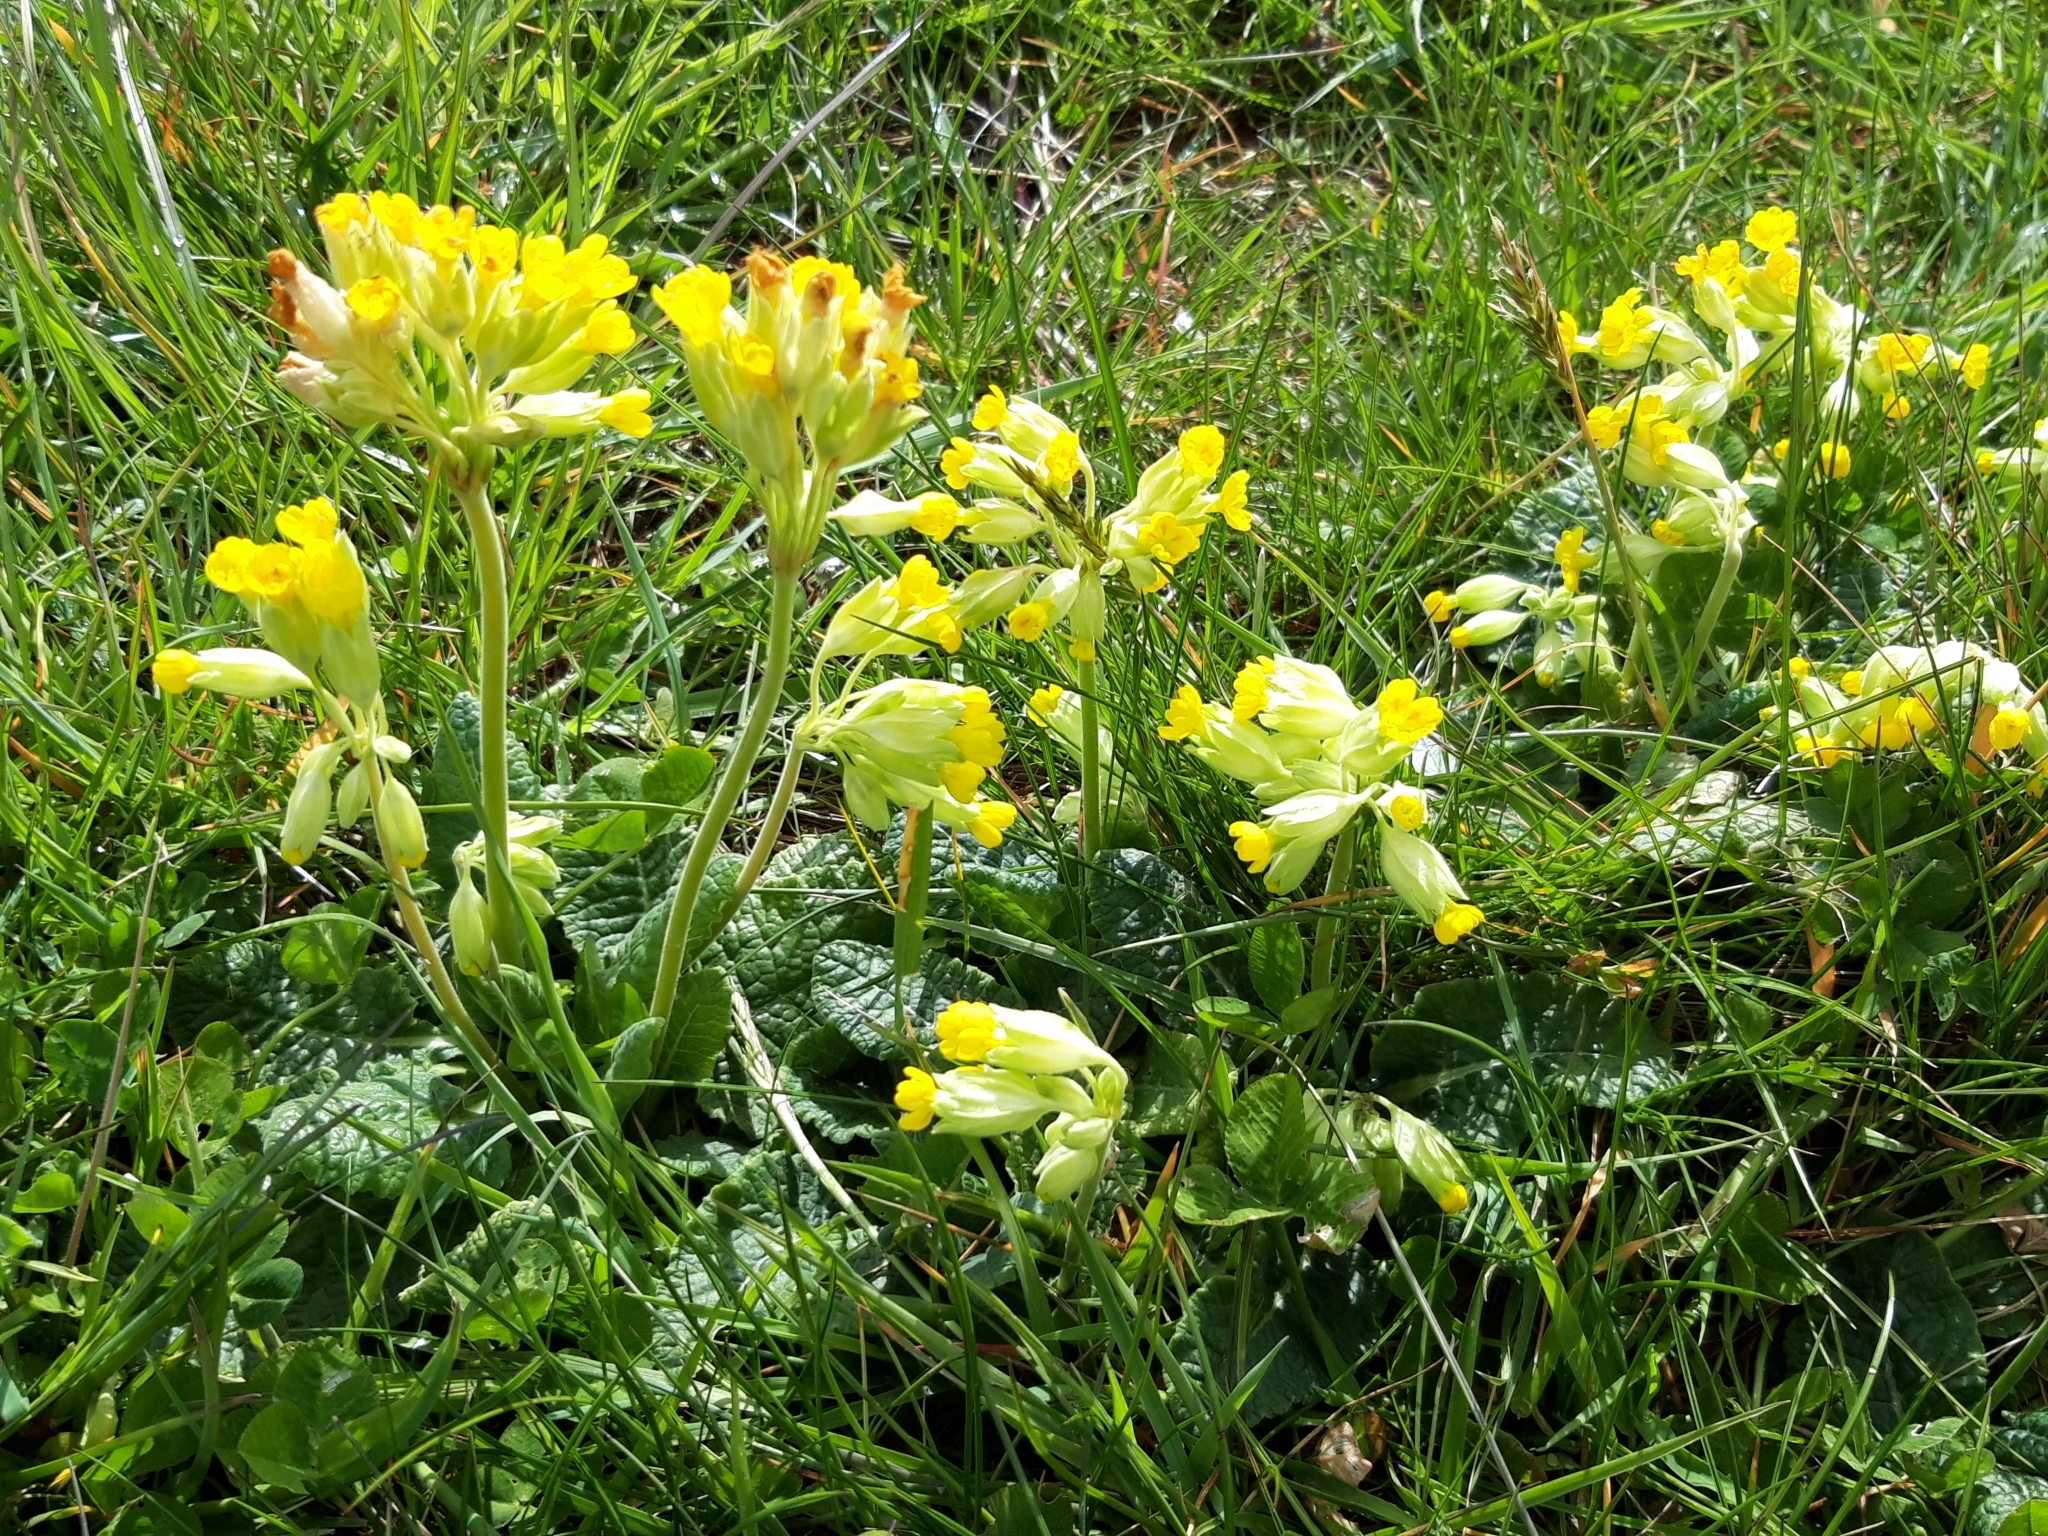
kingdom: Plantae
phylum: Tracheophyta
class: Magnoliopsida
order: Ericales
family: Primulaceae
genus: Primula
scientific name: Primula veris
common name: Cowslip
